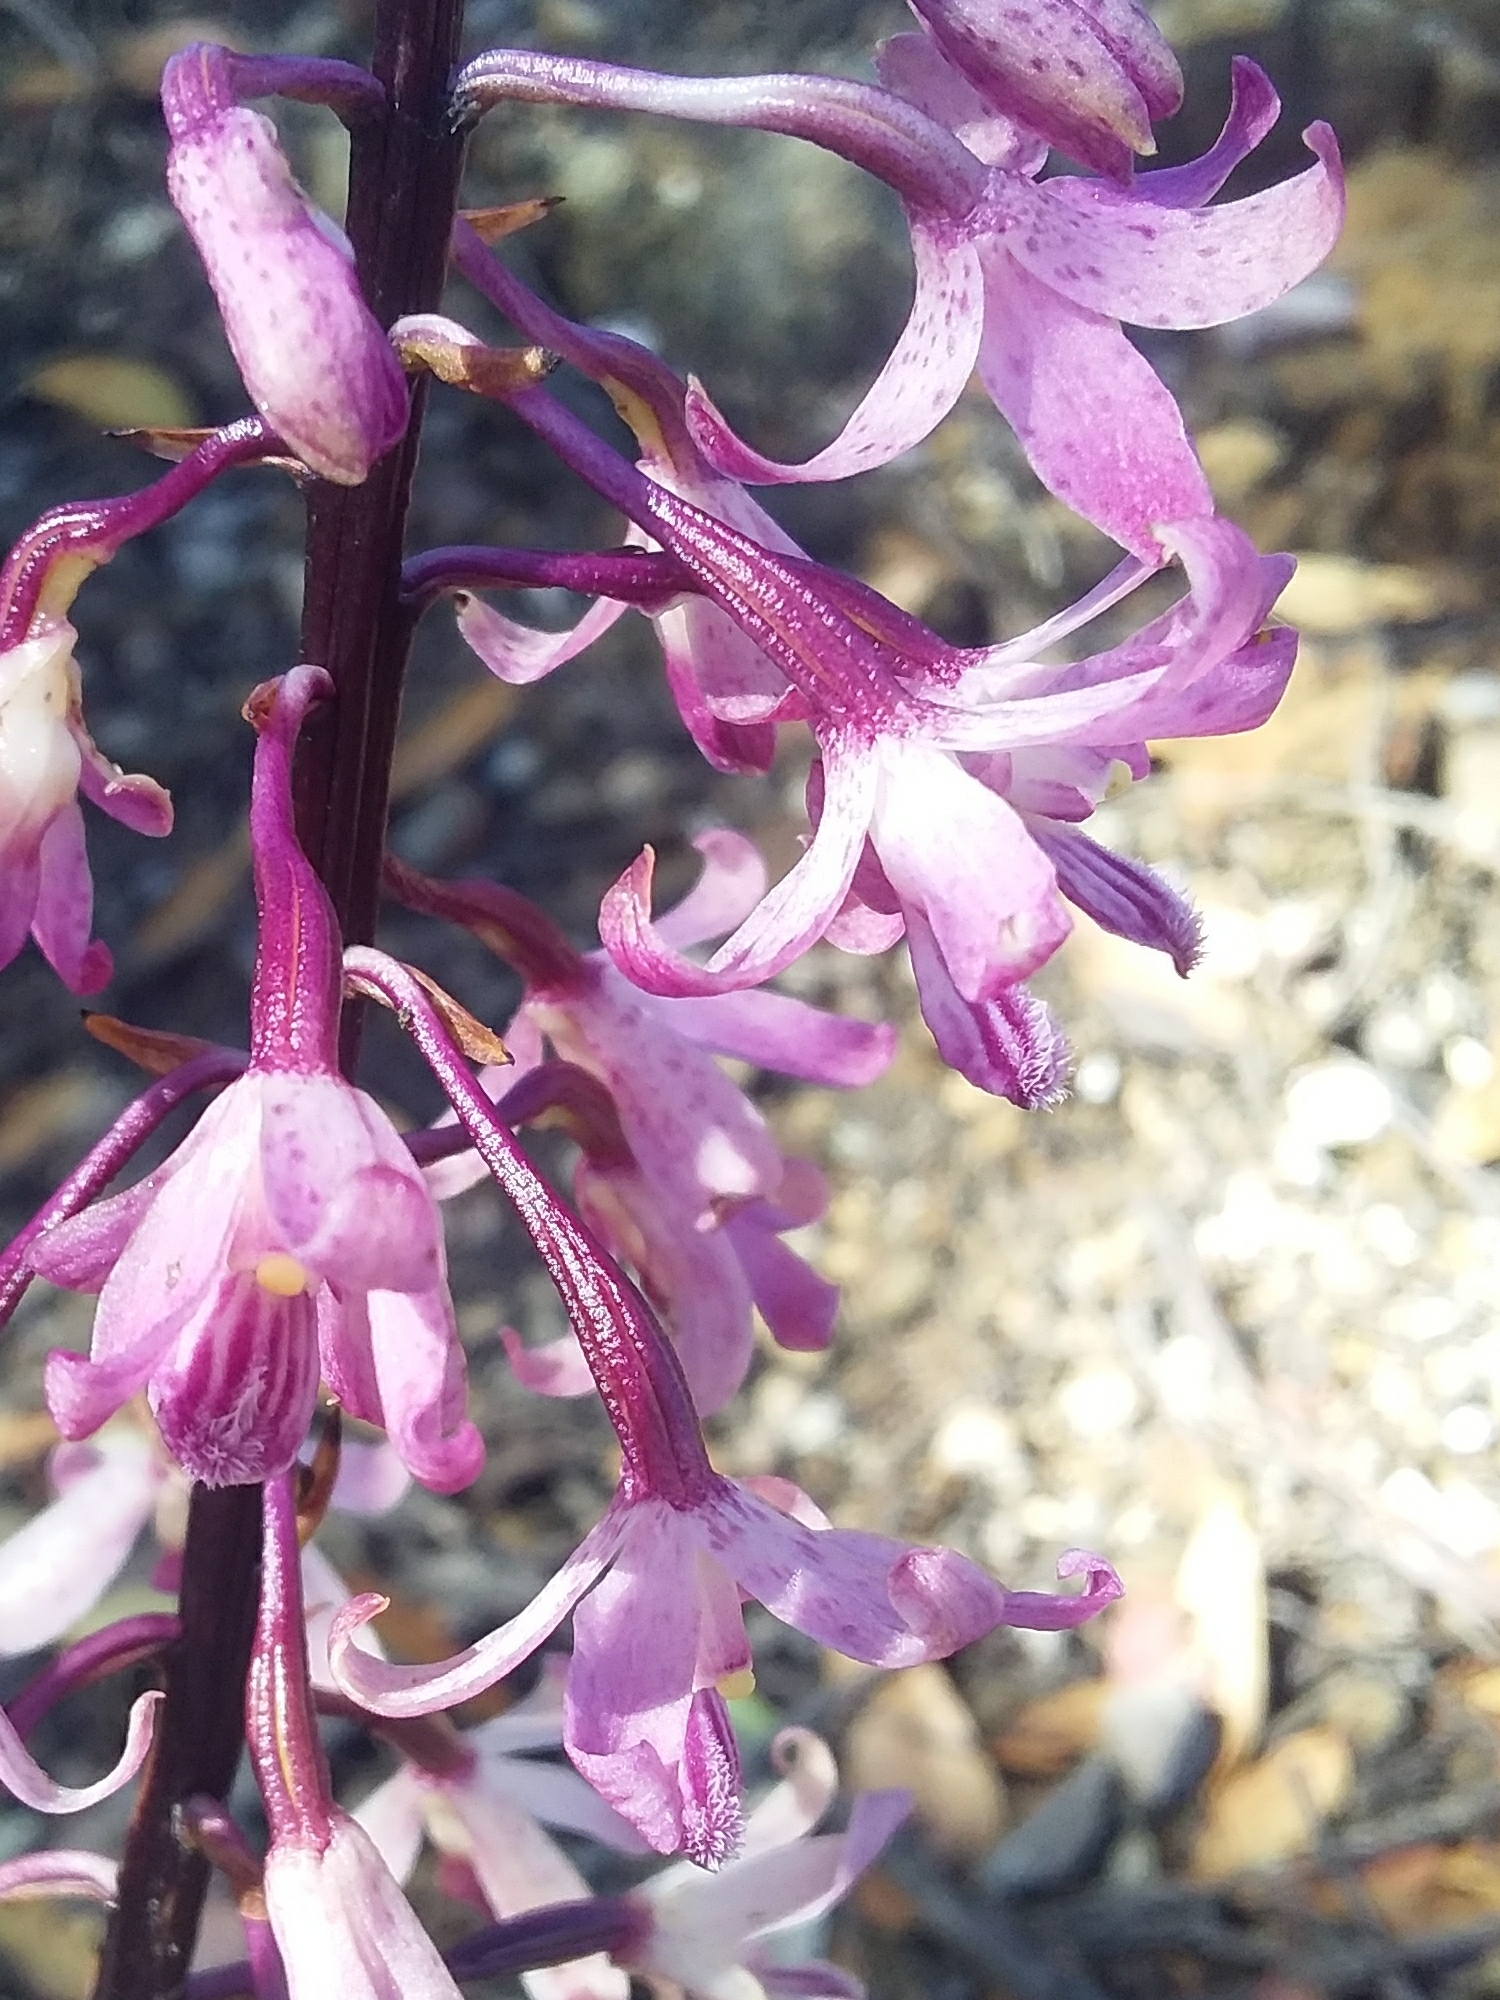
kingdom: Plantae
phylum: Tracheophyta
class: Liliopsida
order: Asparagales
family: Orchidaceae
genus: Dipodium
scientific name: Dipodium roseum
